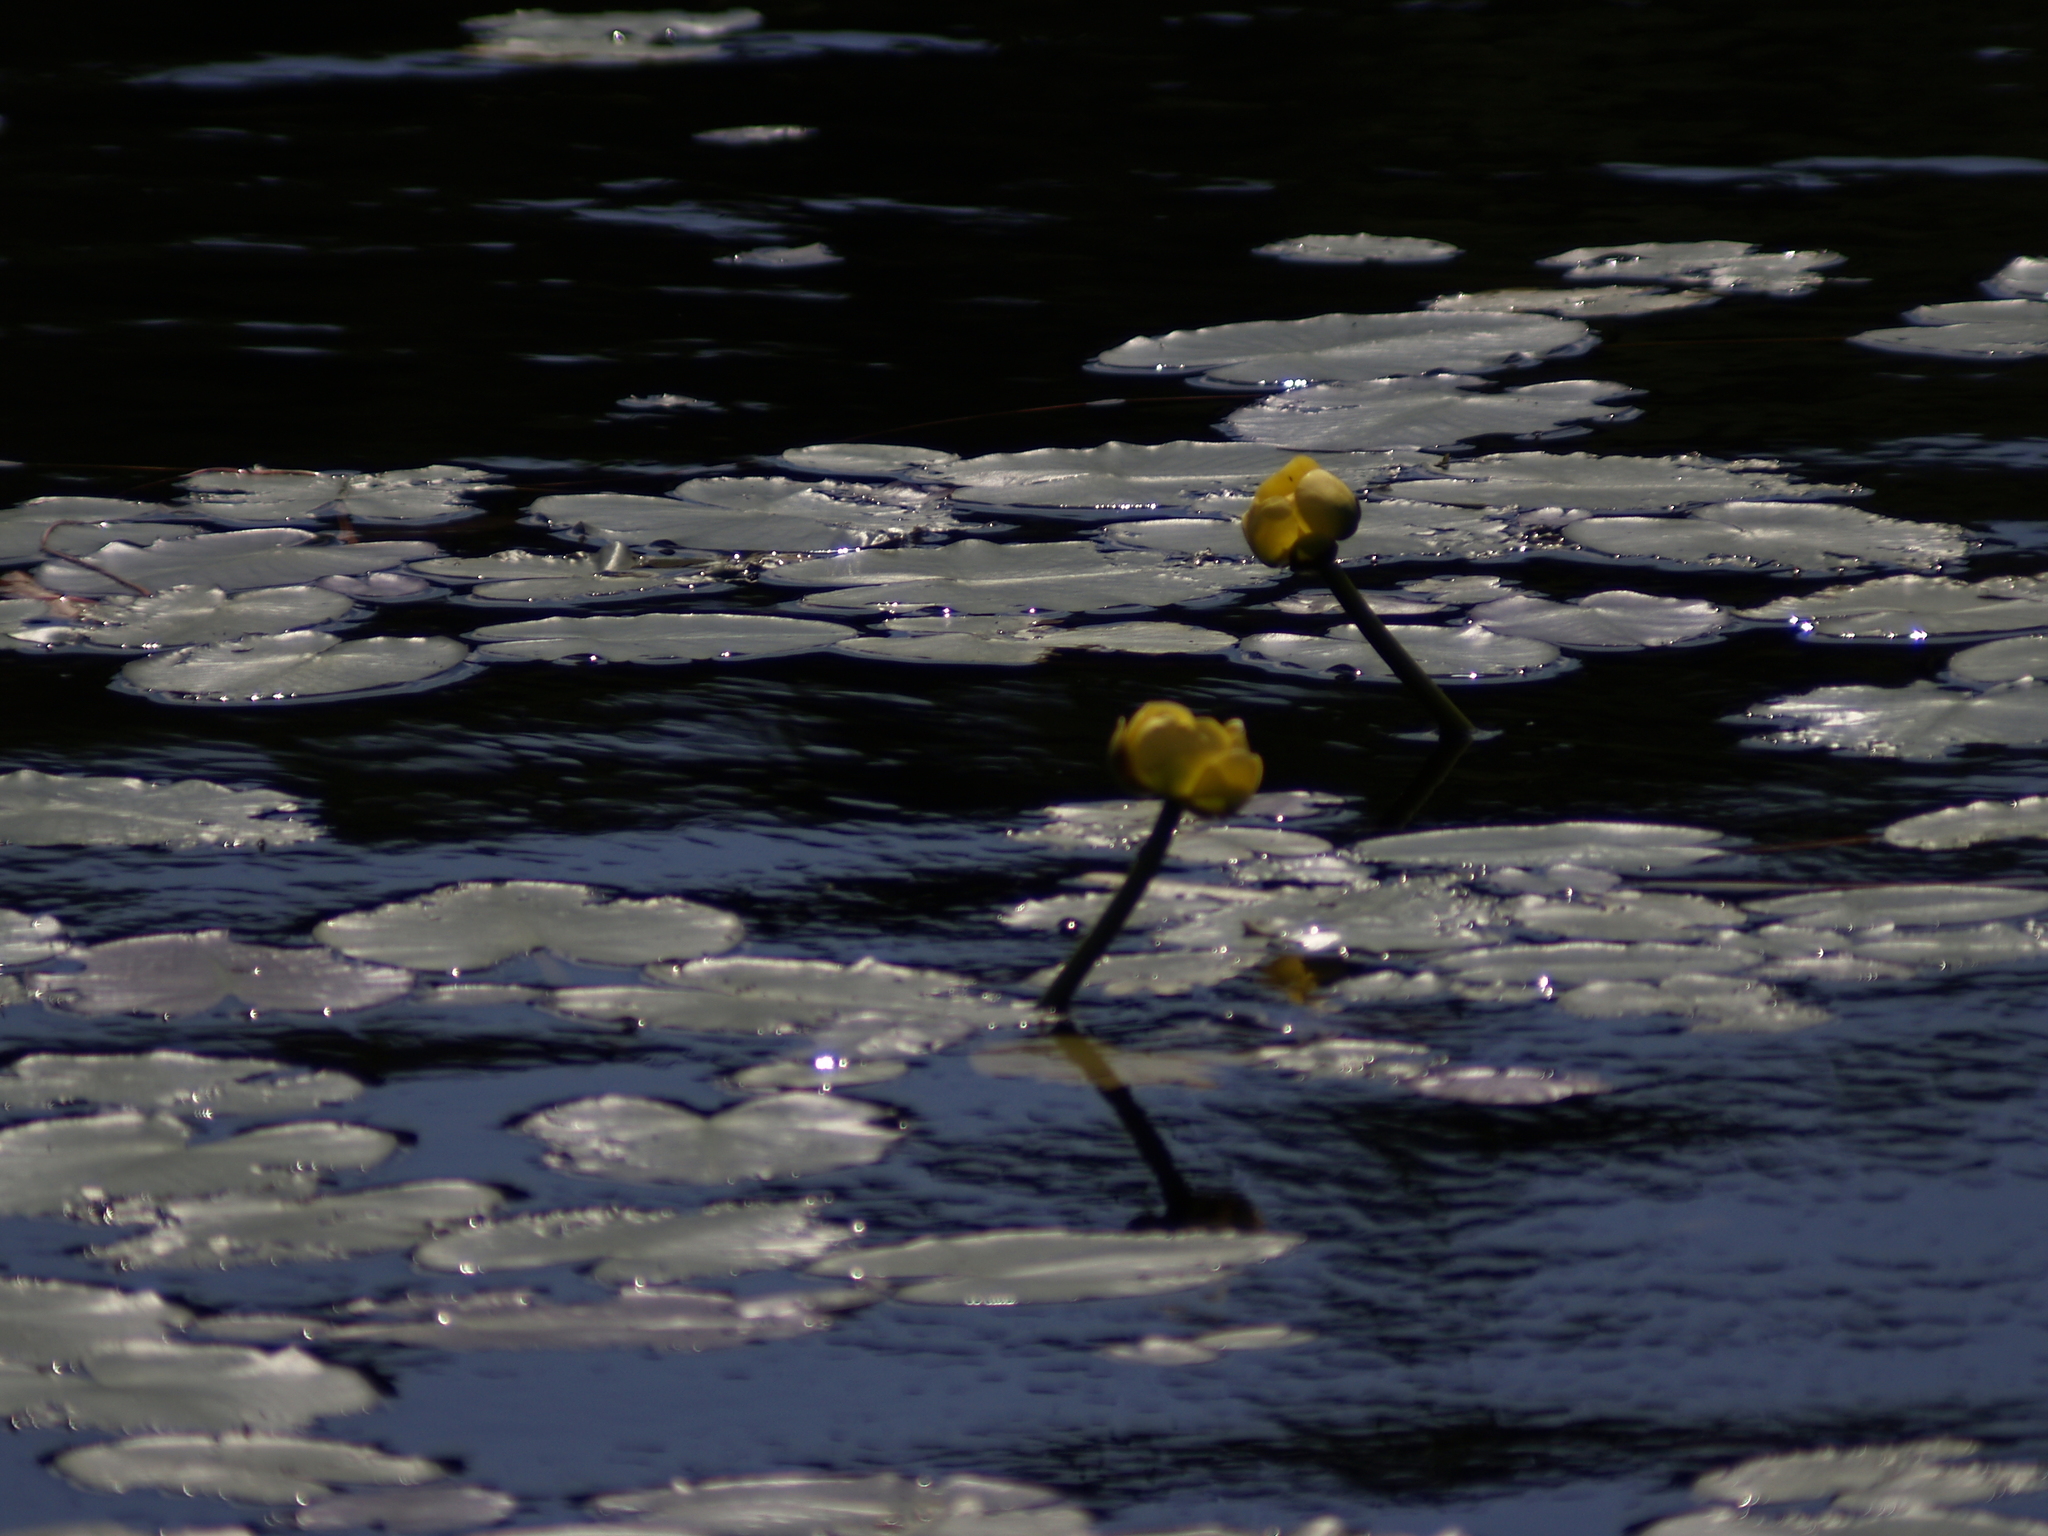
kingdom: Plantae
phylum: Tracheophyta
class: Magnoliopsida
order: Nymphaeales
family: Nymphaeaceae
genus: Nuphar
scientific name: Nuphar variegata
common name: Beaver-root
